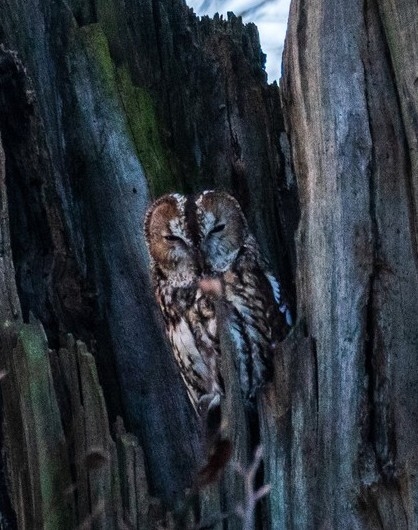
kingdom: Animalia
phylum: Chordata
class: Aves
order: Strigiformes
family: Strigidae
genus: Strix
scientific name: Strix aluco
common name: Tawny owl
